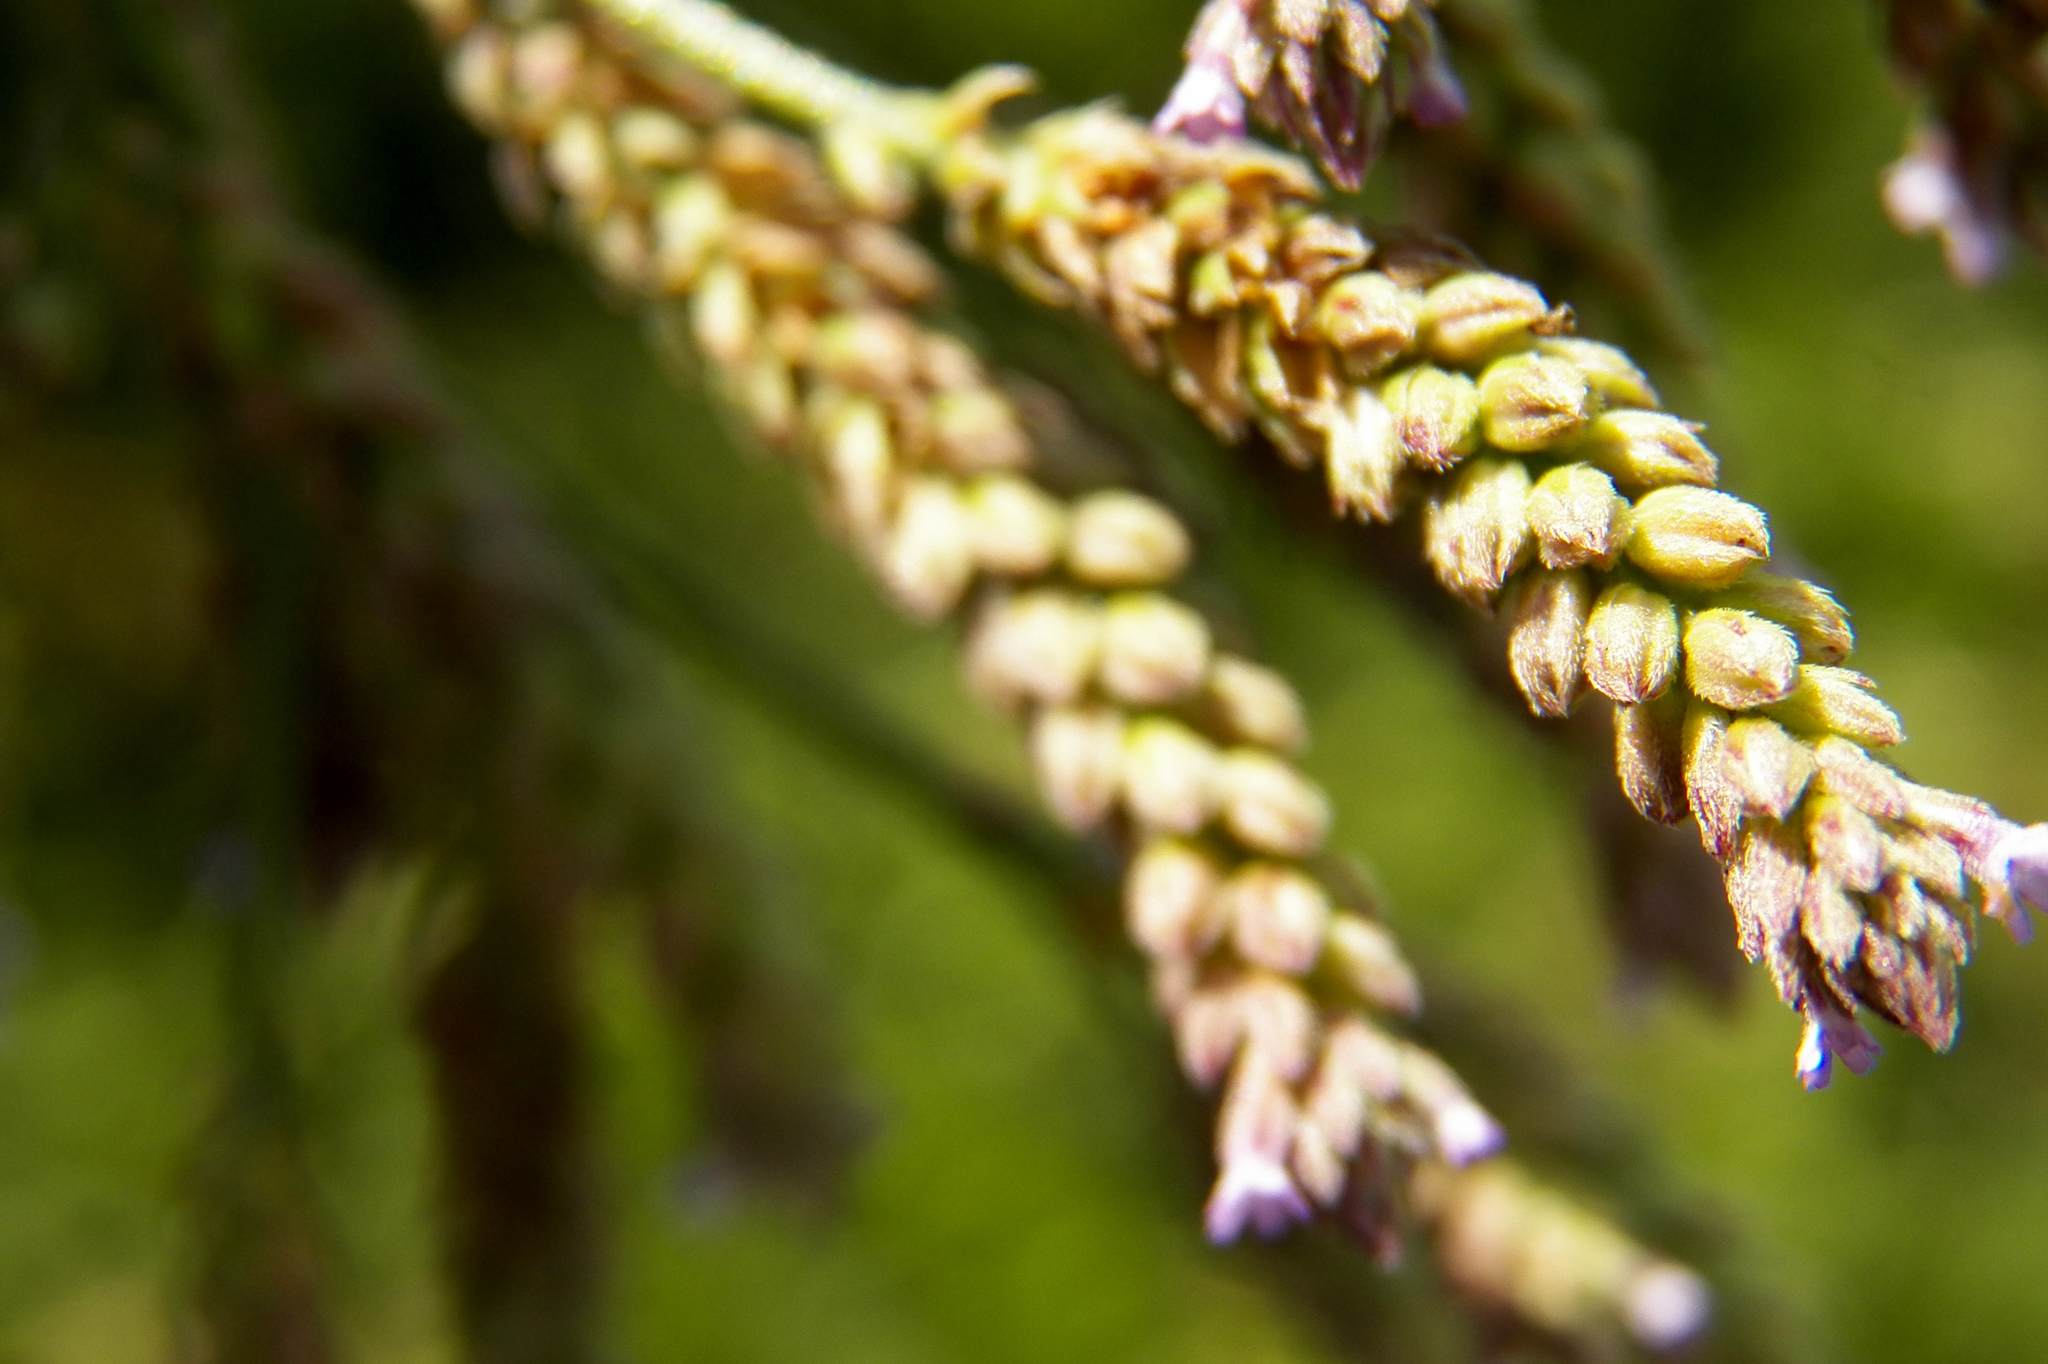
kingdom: Plantae
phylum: Tracheophyta
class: Magnoliopsida
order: Lamiales
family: Verbenaceae
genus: Verbena
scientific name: Verbena brasiliensis
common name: Brazilian vervain
